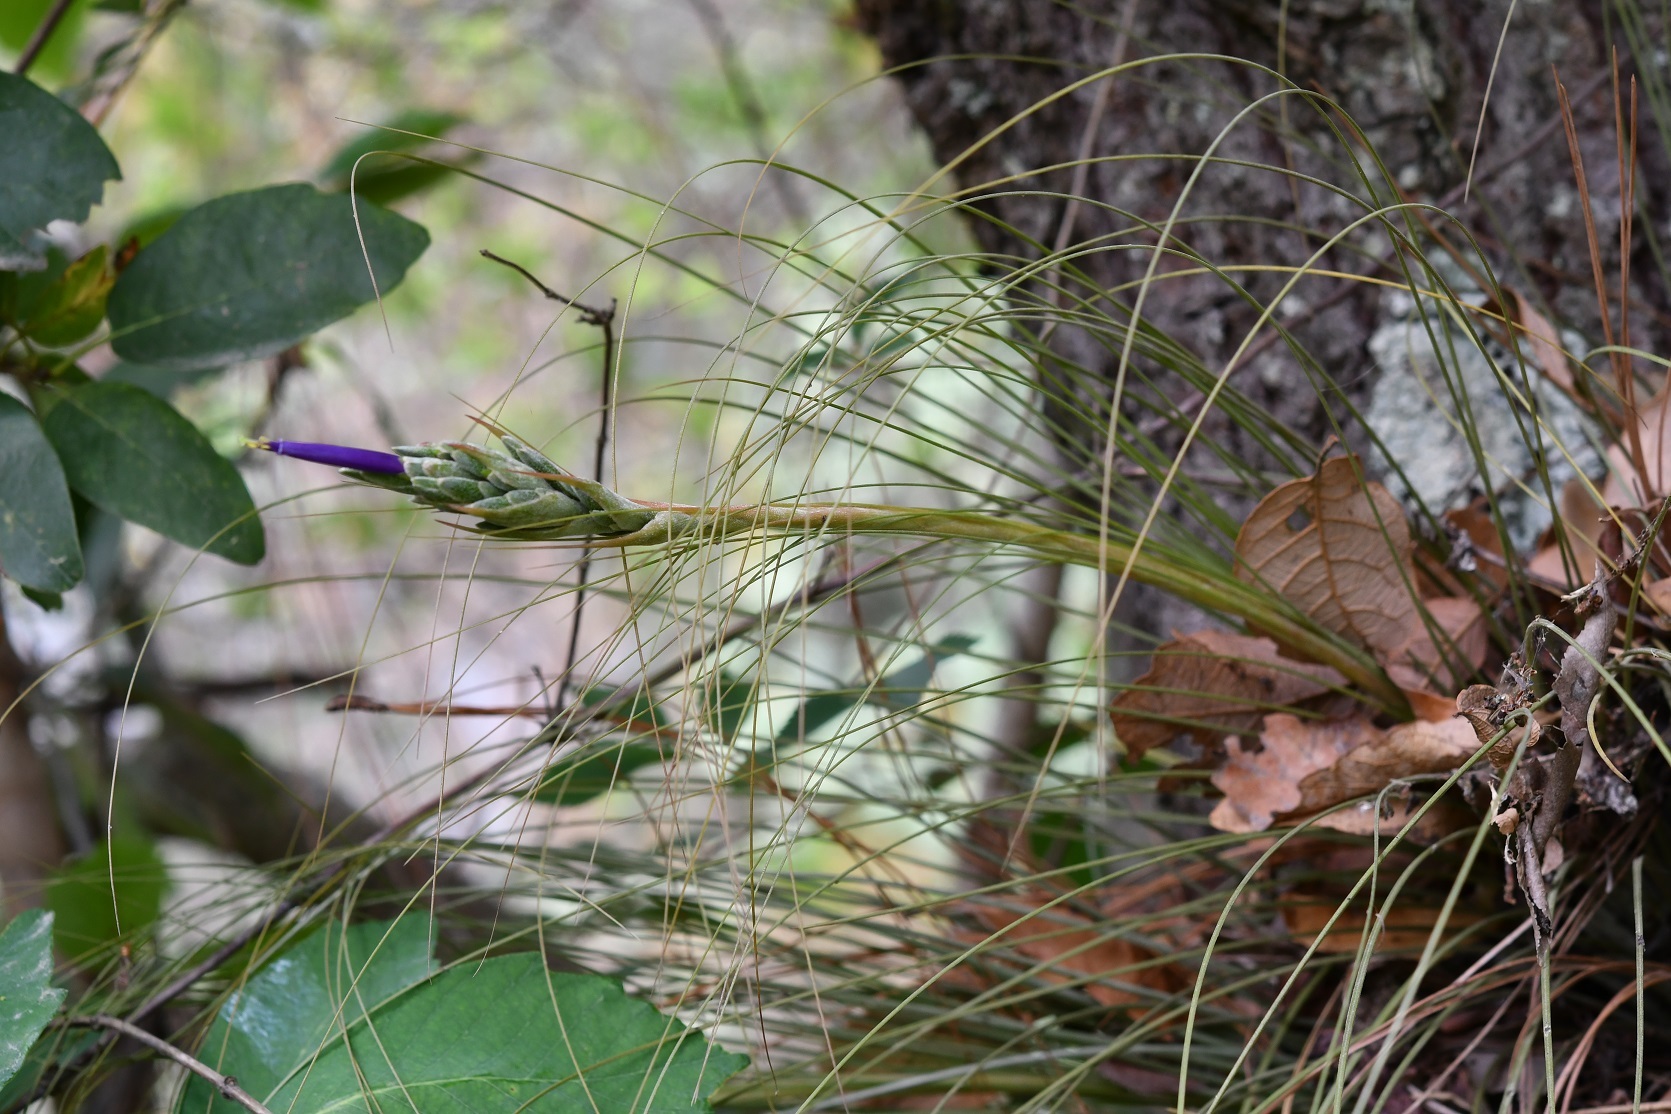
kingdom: Plantae
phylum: Tracheophyta
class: Liliopsida
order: Poales
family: Bromeliaceae
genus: Tillandsia
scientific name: Tillandsia juncea
